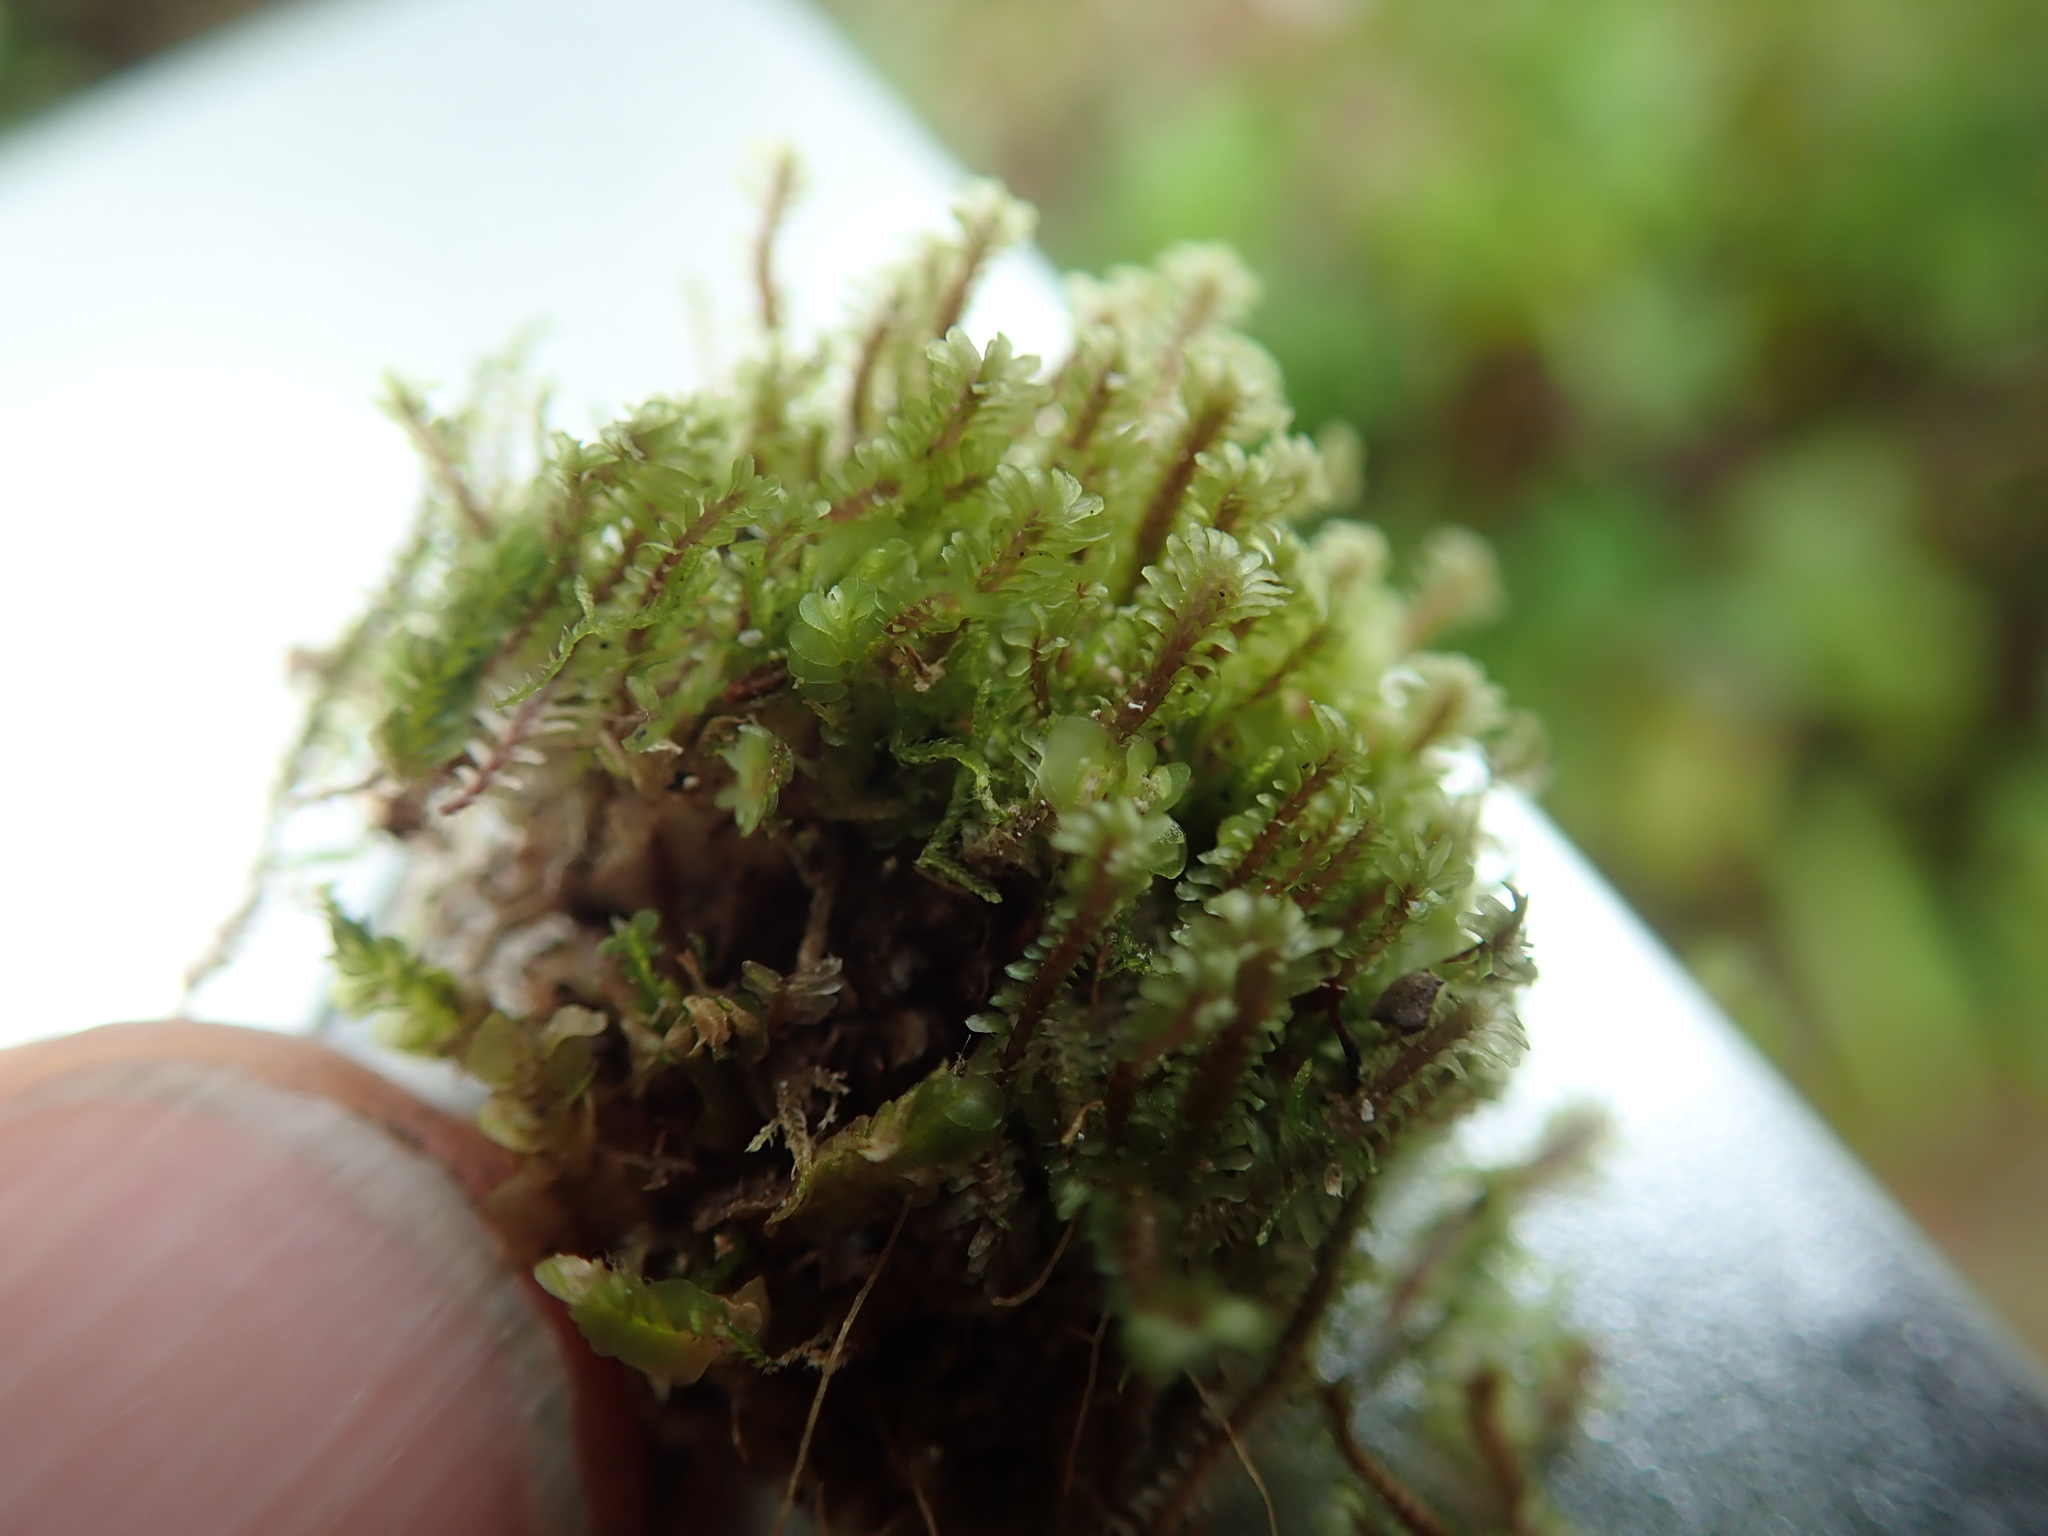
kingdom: Plantae
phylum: Marchantiophyta
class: Jungermanniopsida
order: Jungermanniales
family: Scapaniaceae
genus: Diplophyllum
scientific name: Diplophyllum albicans
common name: White earwort
